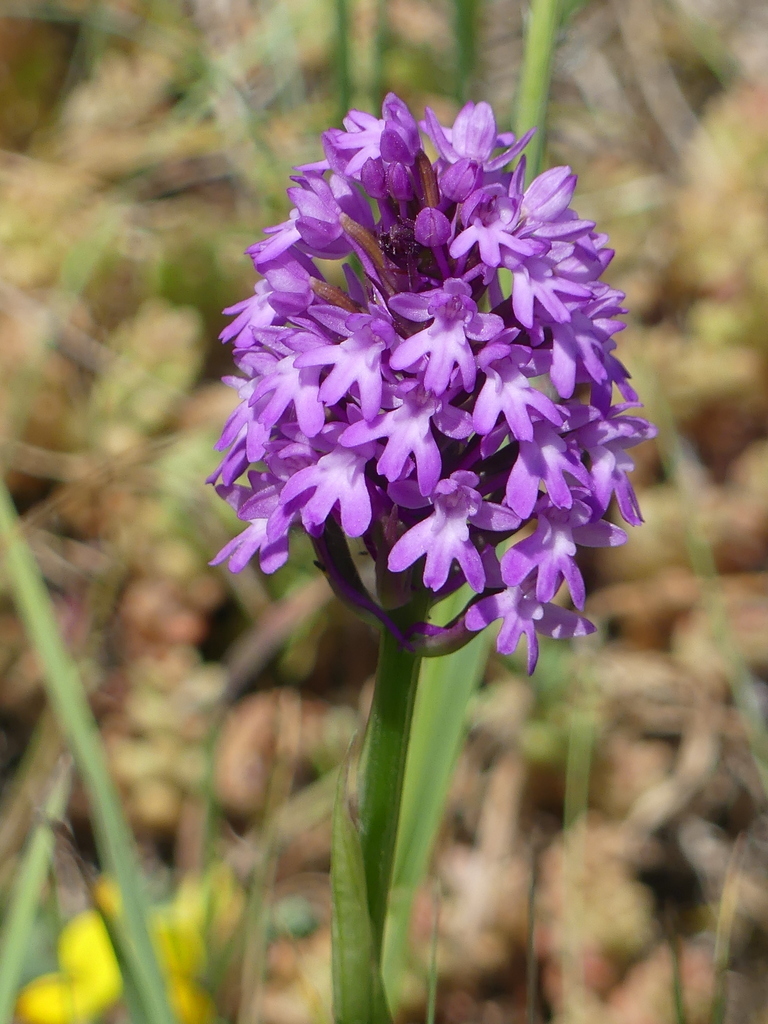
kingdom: Plantae
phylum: Tracheophyta
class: Liliopsida
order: Asparagales
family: Orchidaceae
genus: Anacamptis
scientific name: Anacamptis pyramidalis
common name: Pyramidal orchid
